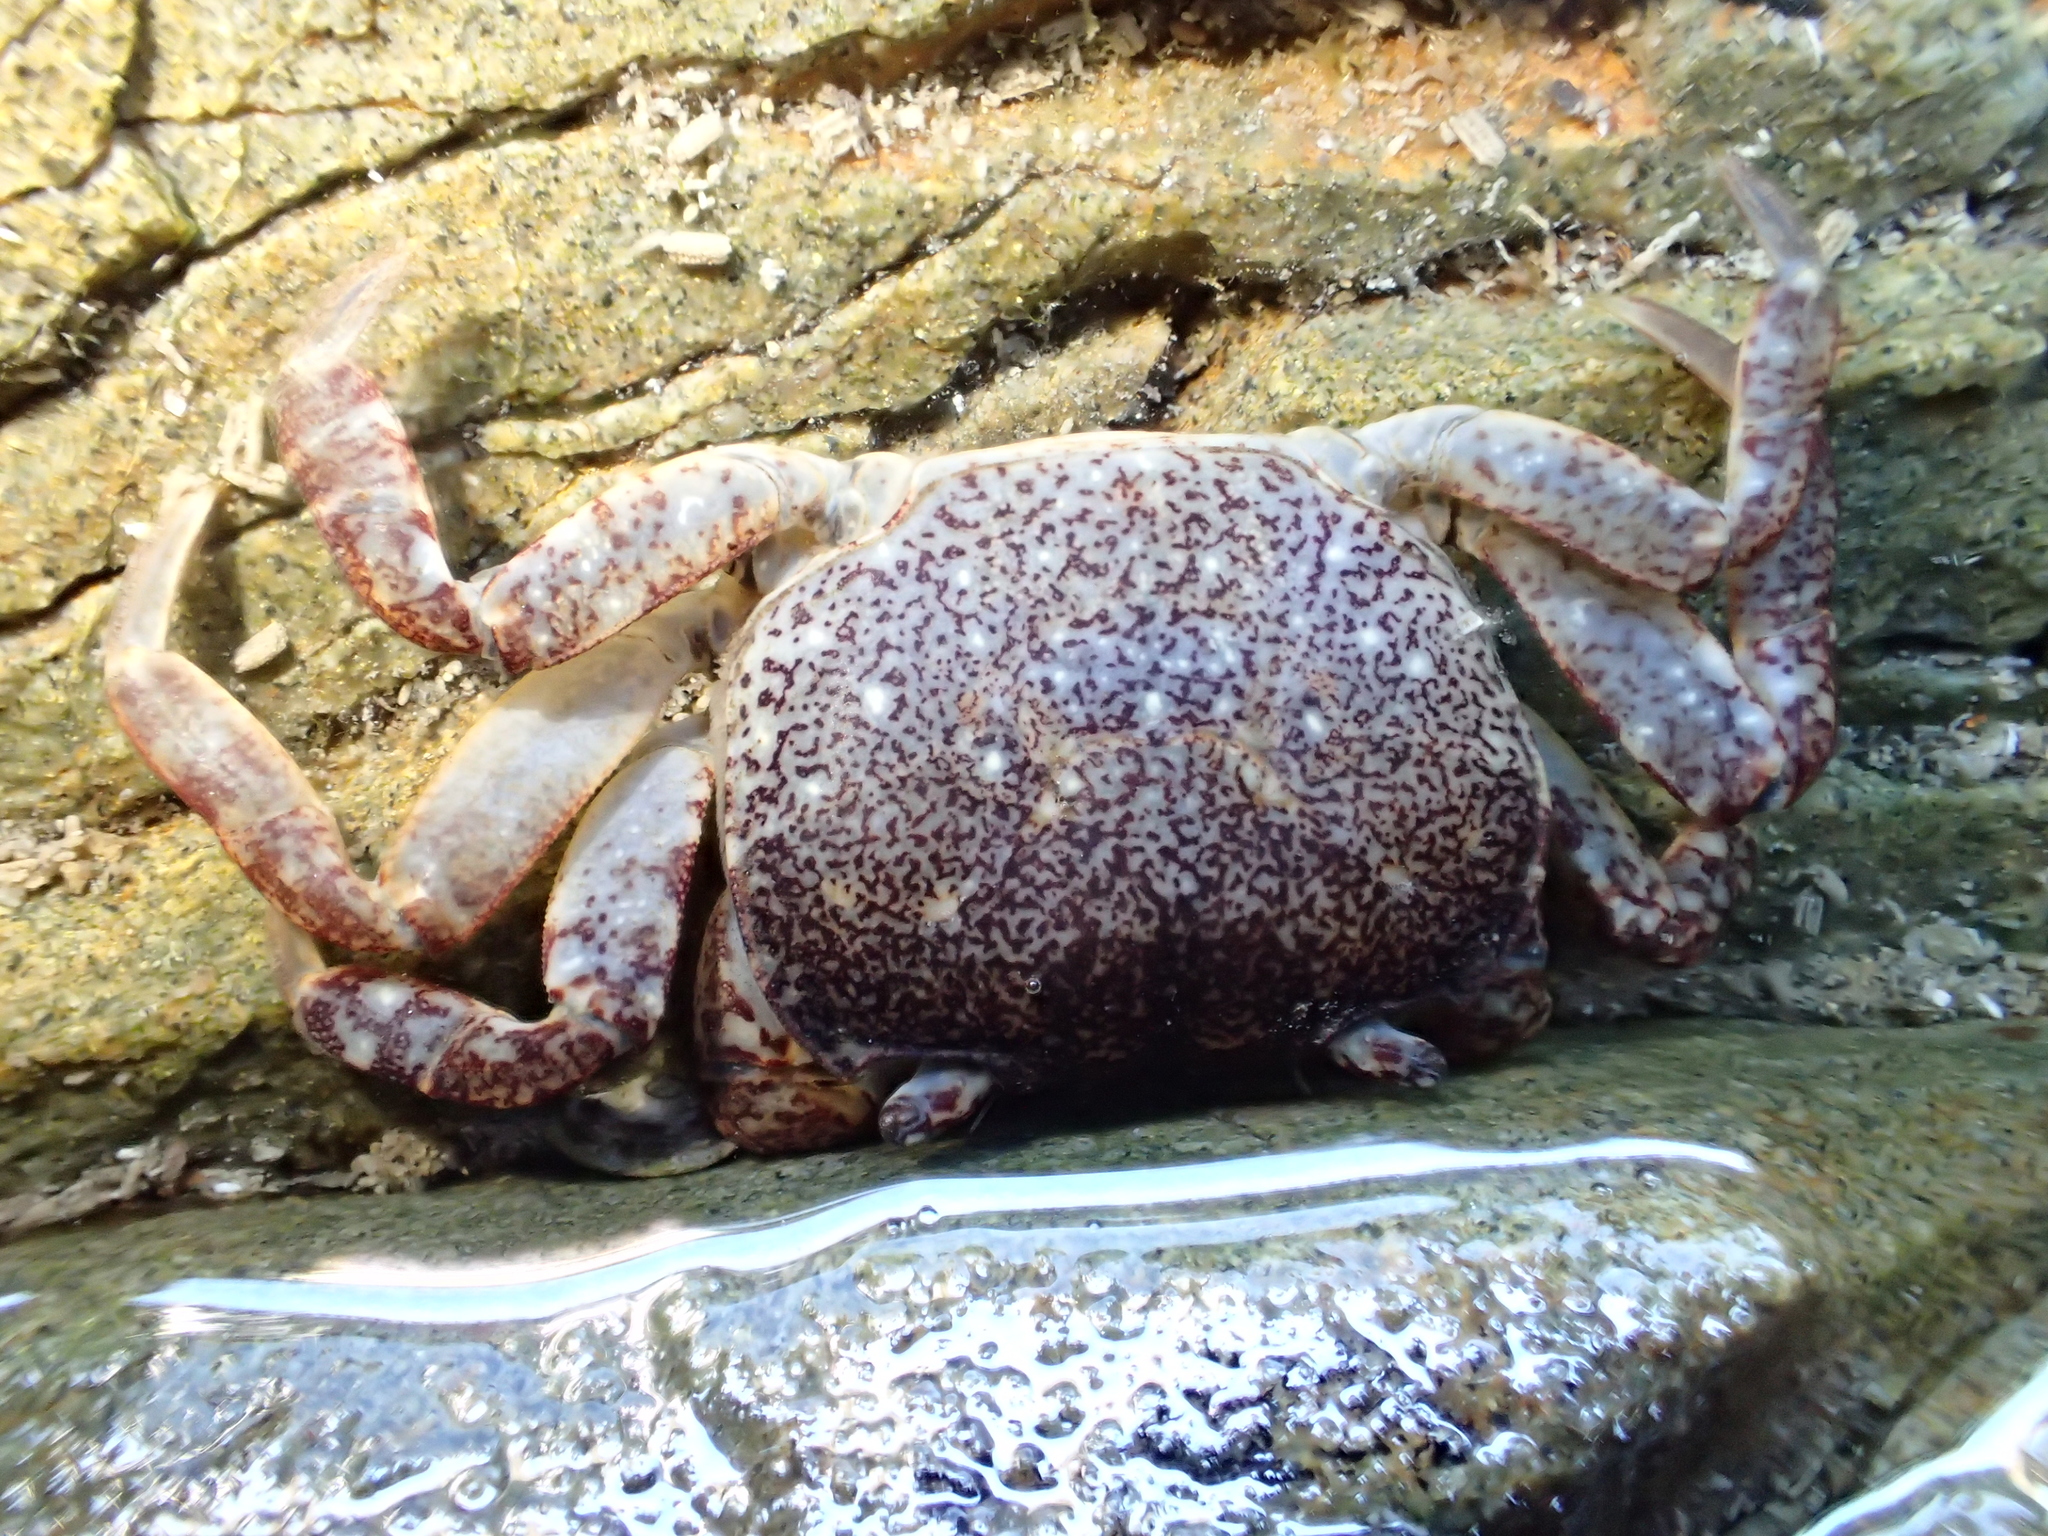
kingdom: Animalia
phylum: Arthropoda
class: Malacostraca
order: Decapoda
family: Varunidae
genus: Cyclograpsus
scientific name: Cyclograpsus lavauxi
